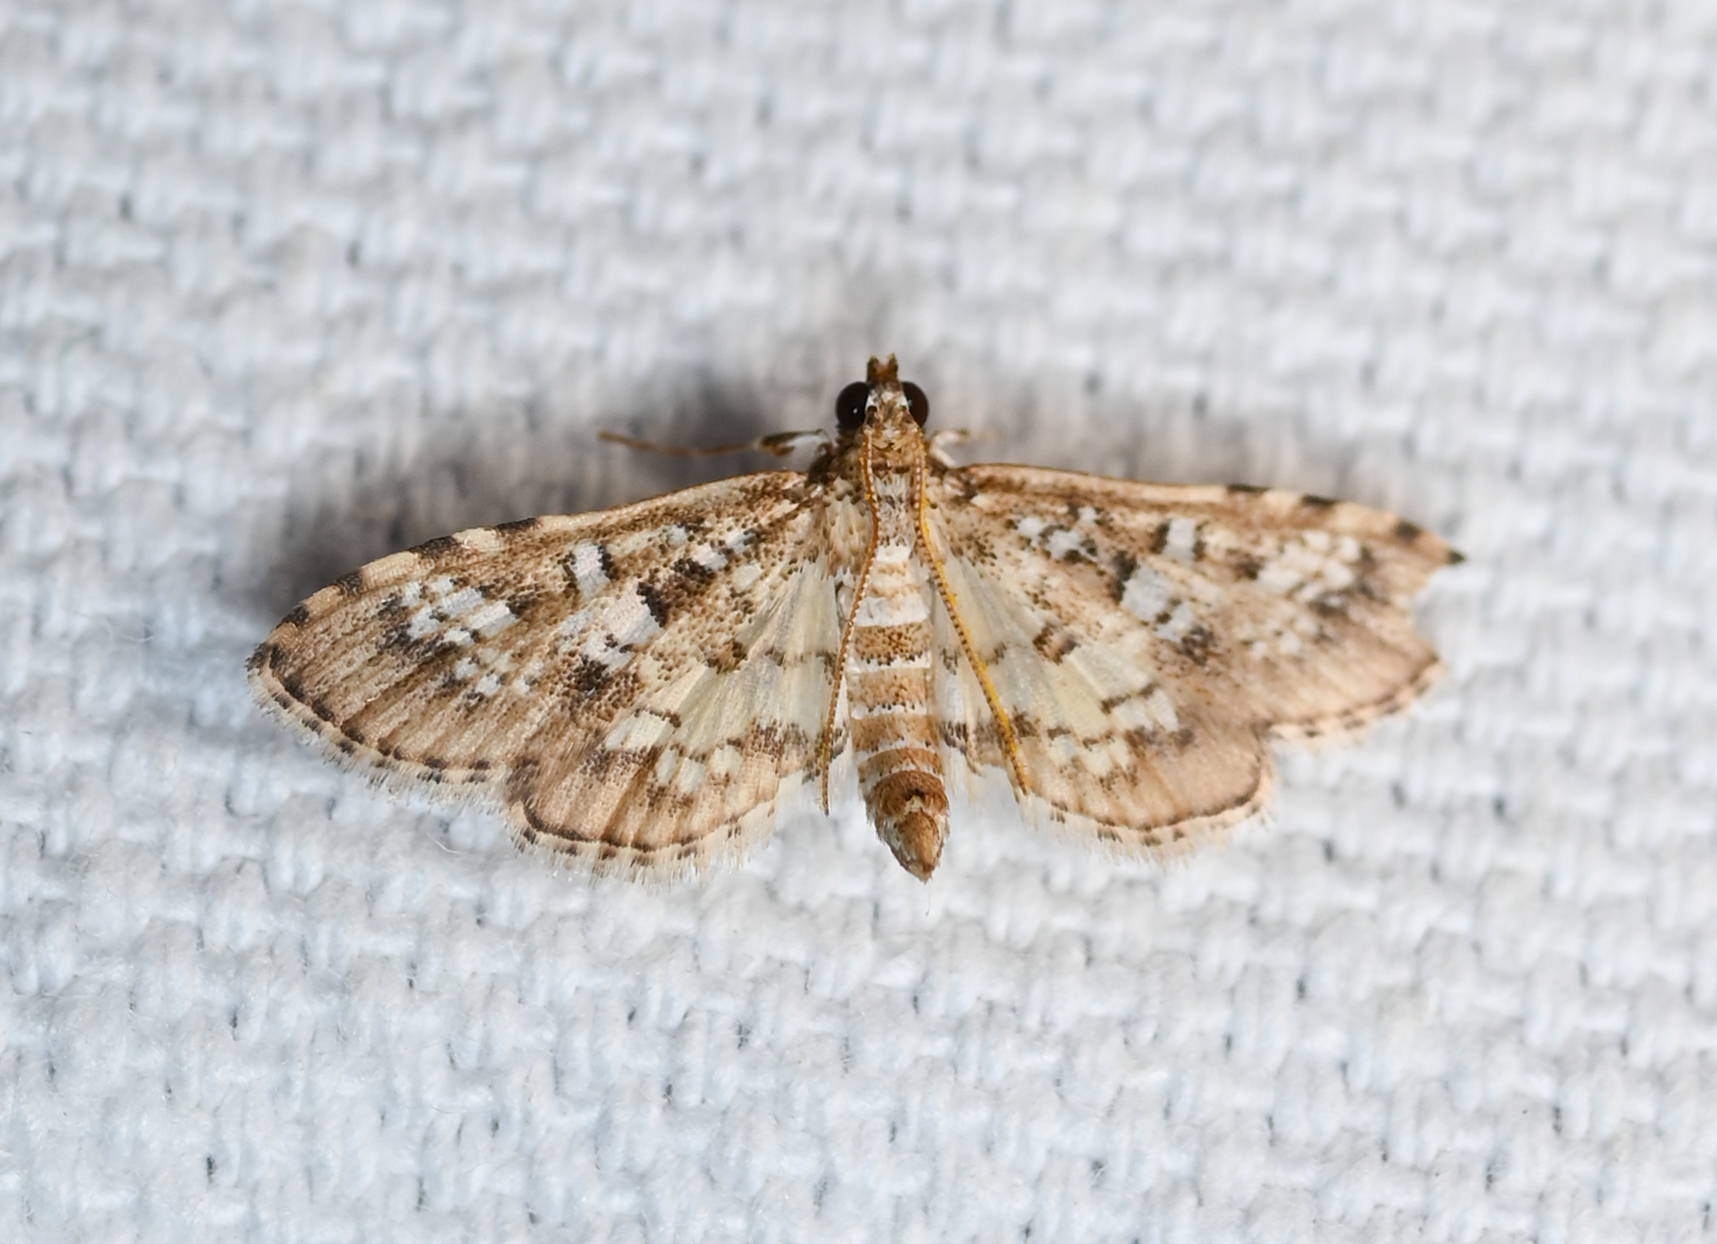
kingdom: Animalia
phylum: Arthropoda
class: Insecta
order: Lepidoptera
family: Crambidae
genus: Samea
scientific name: Samea multiplicalis
